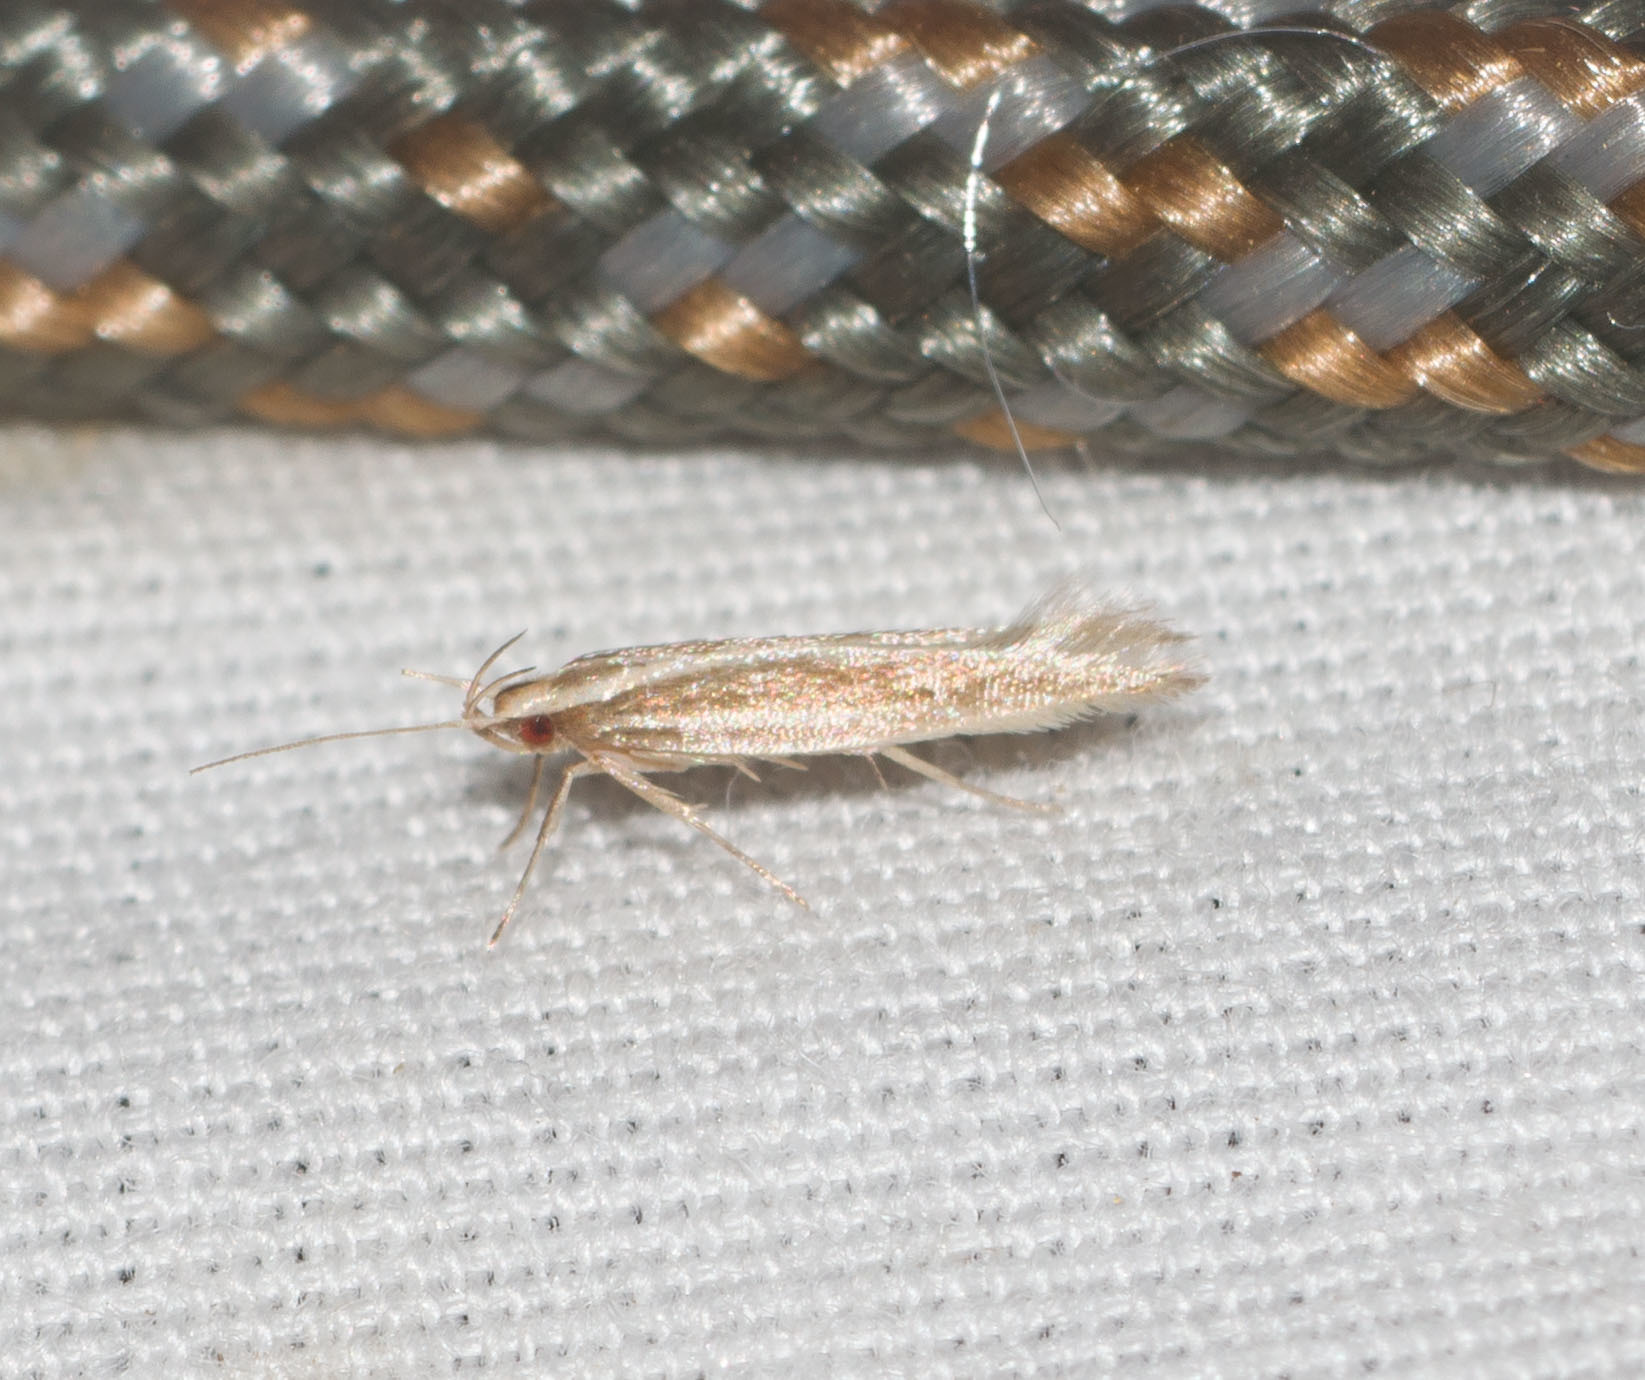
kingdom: Animalia
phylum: Arthropoda
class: Insecta
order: Lepidoptera
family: Cosmopterigidae
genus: Asymphorodes
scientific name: Asymphorodes
